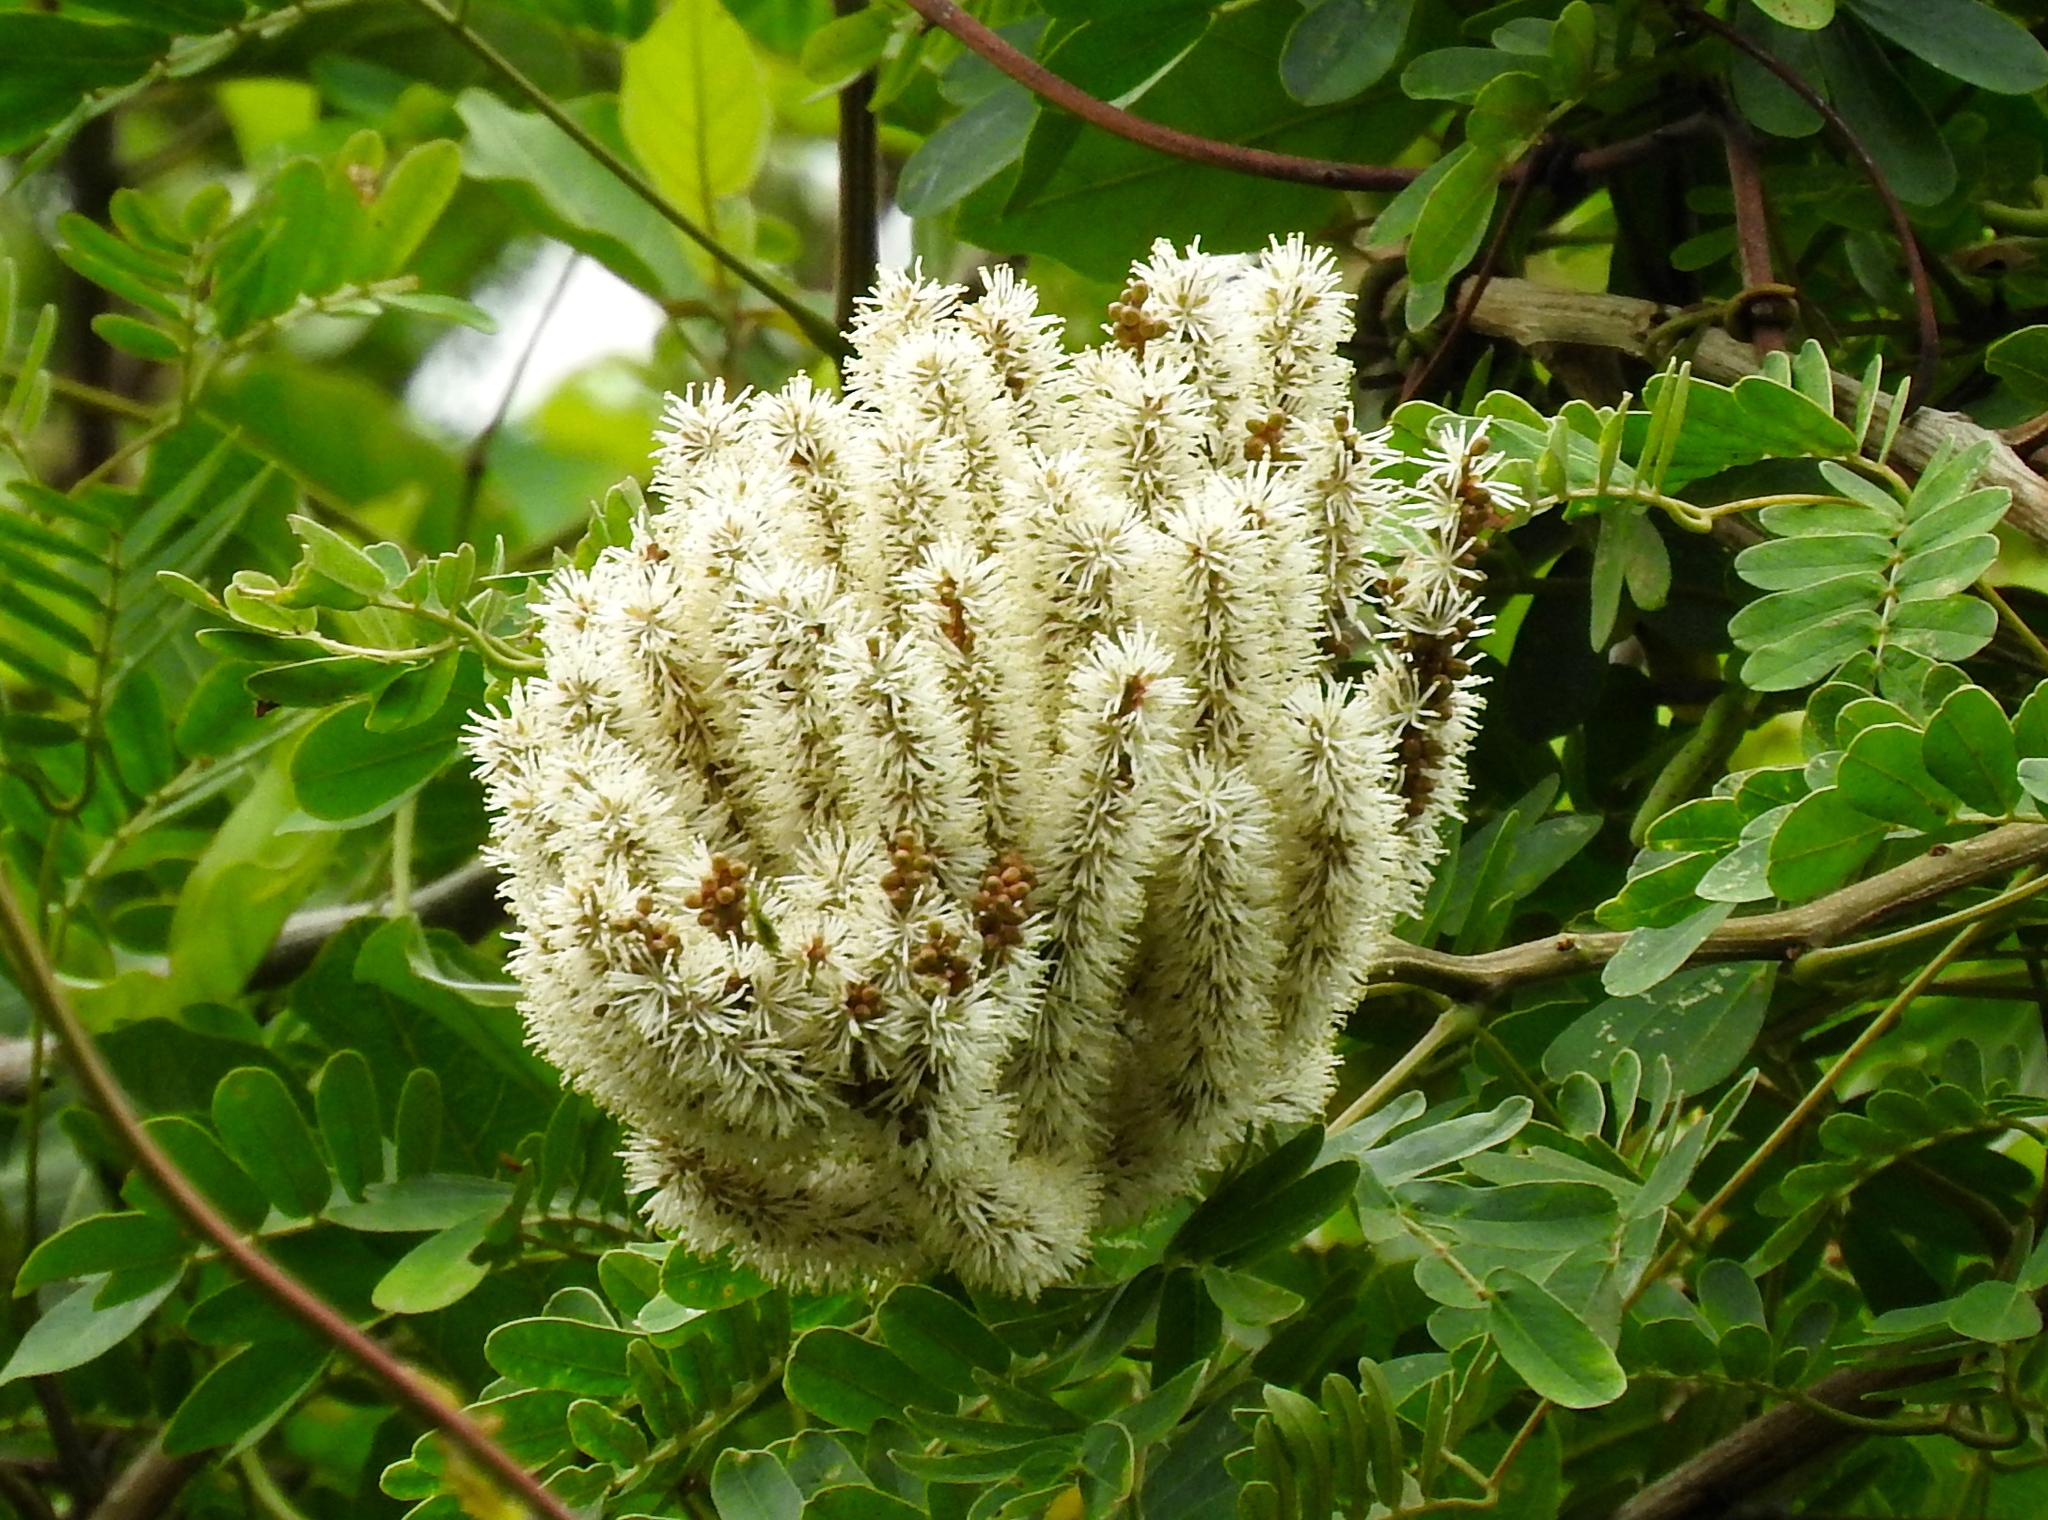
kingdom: Plantae
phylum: Tracheophyta
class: Magnoliopsida
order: Fabales
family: Fabaceae
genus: Entada
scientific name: Entada polystachya
